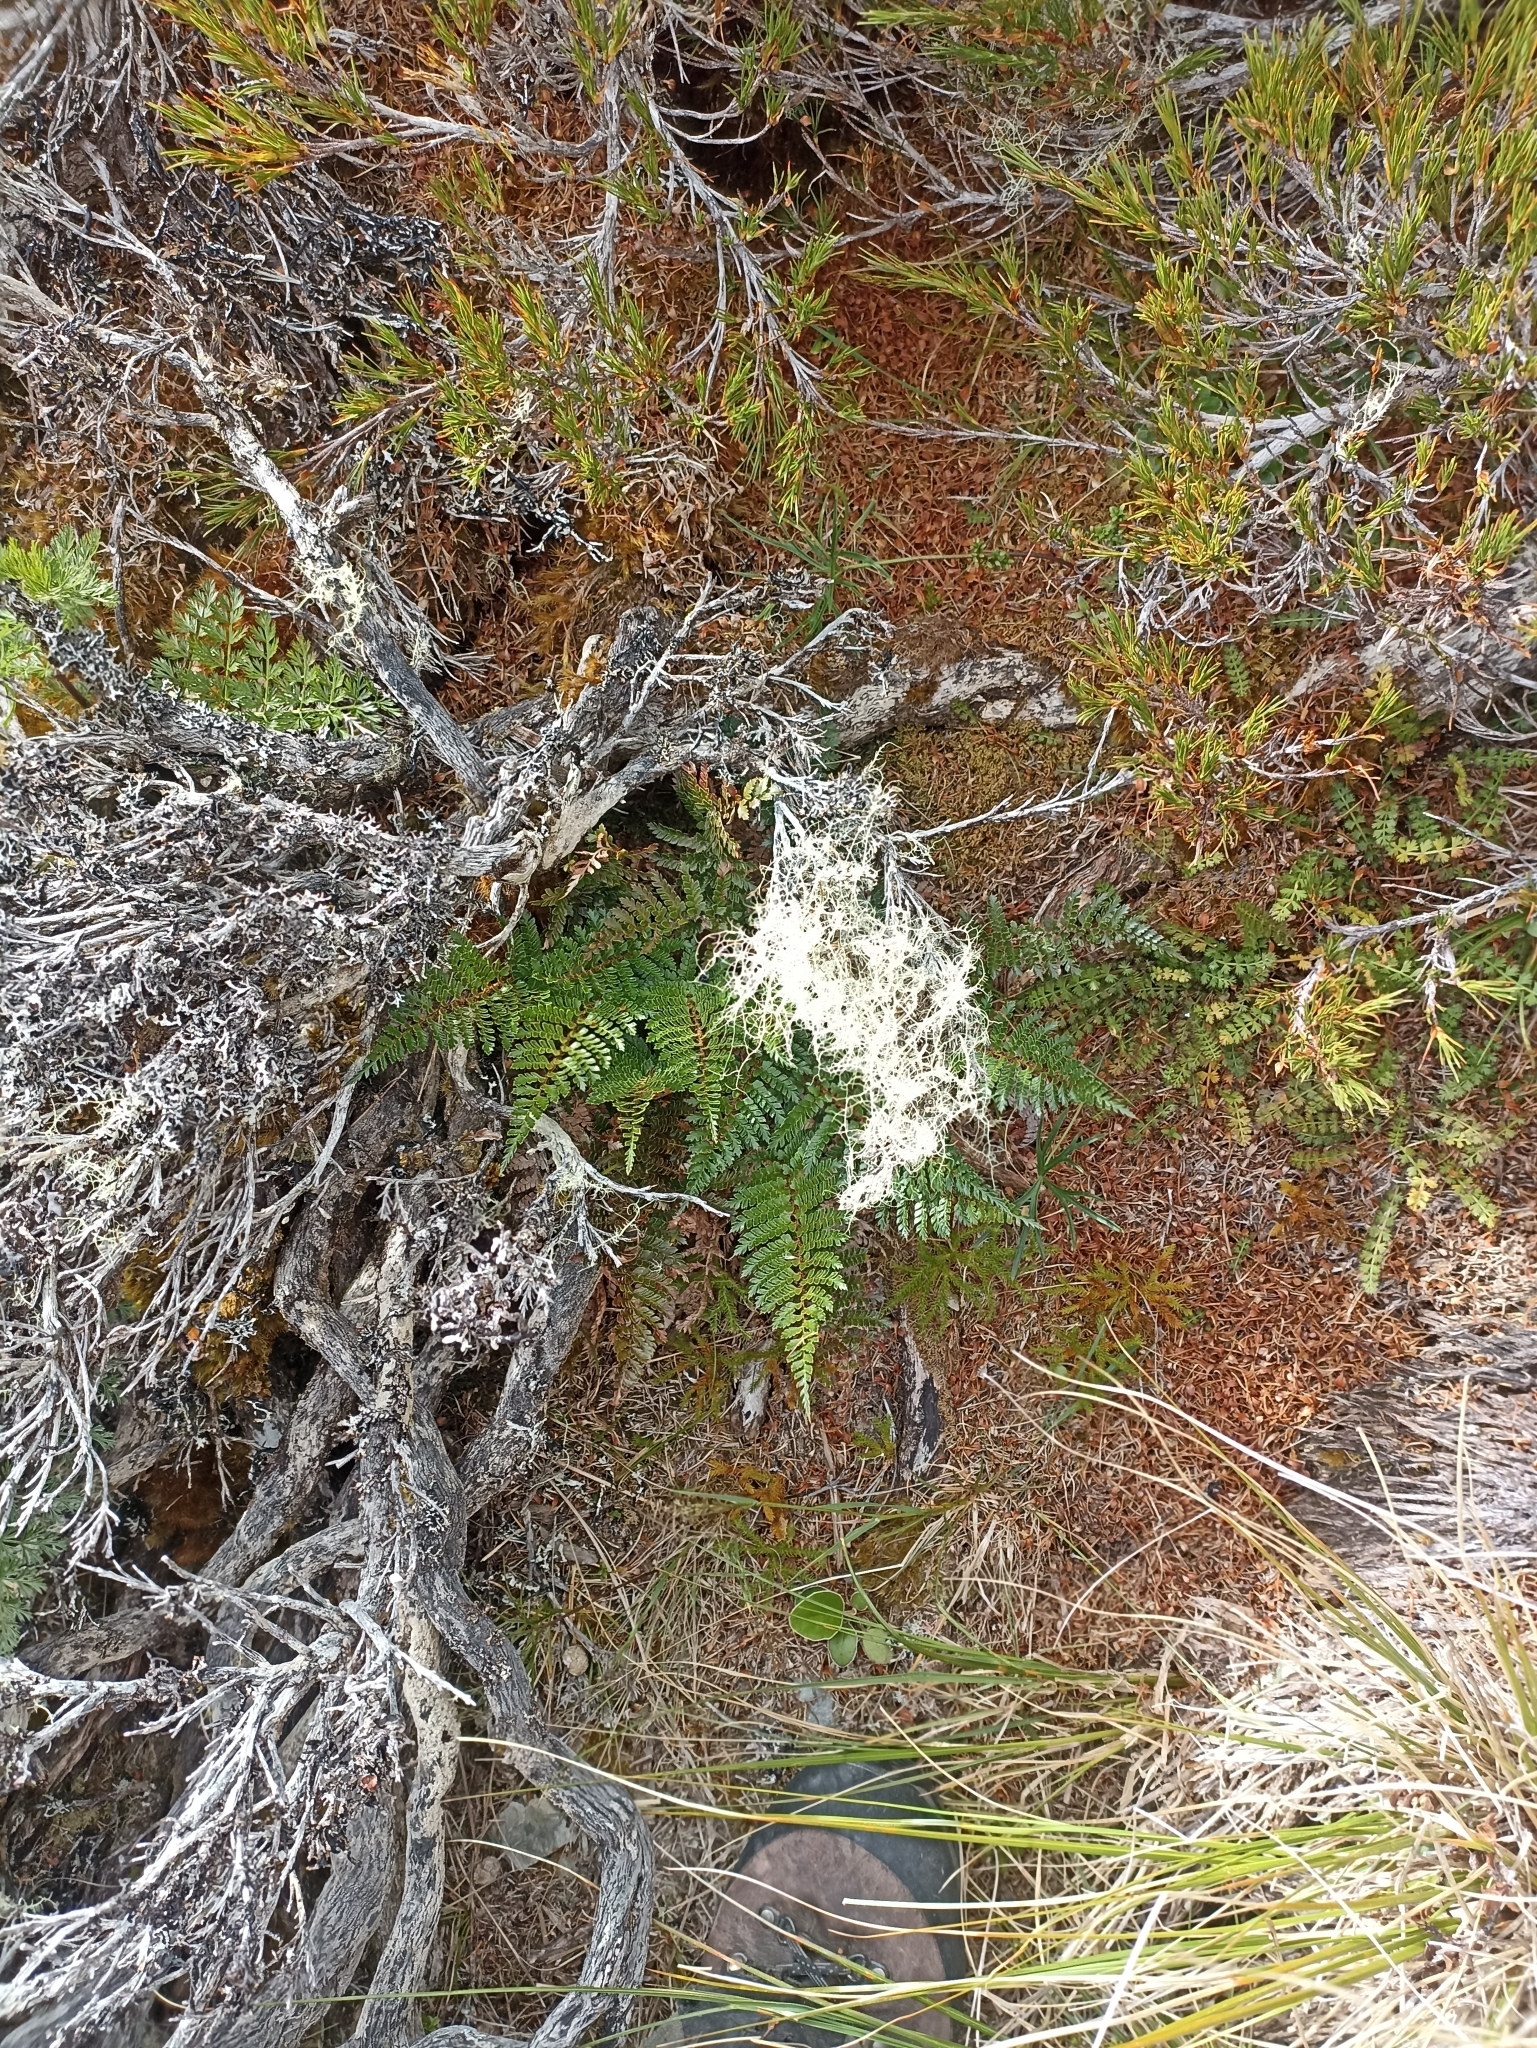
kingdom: Plantae
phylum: Tracheophyta
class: Polypodiopsida
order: Polypodiales
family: Dryopteridaceae
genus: Polystichum
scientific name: Polystichum vestitum
